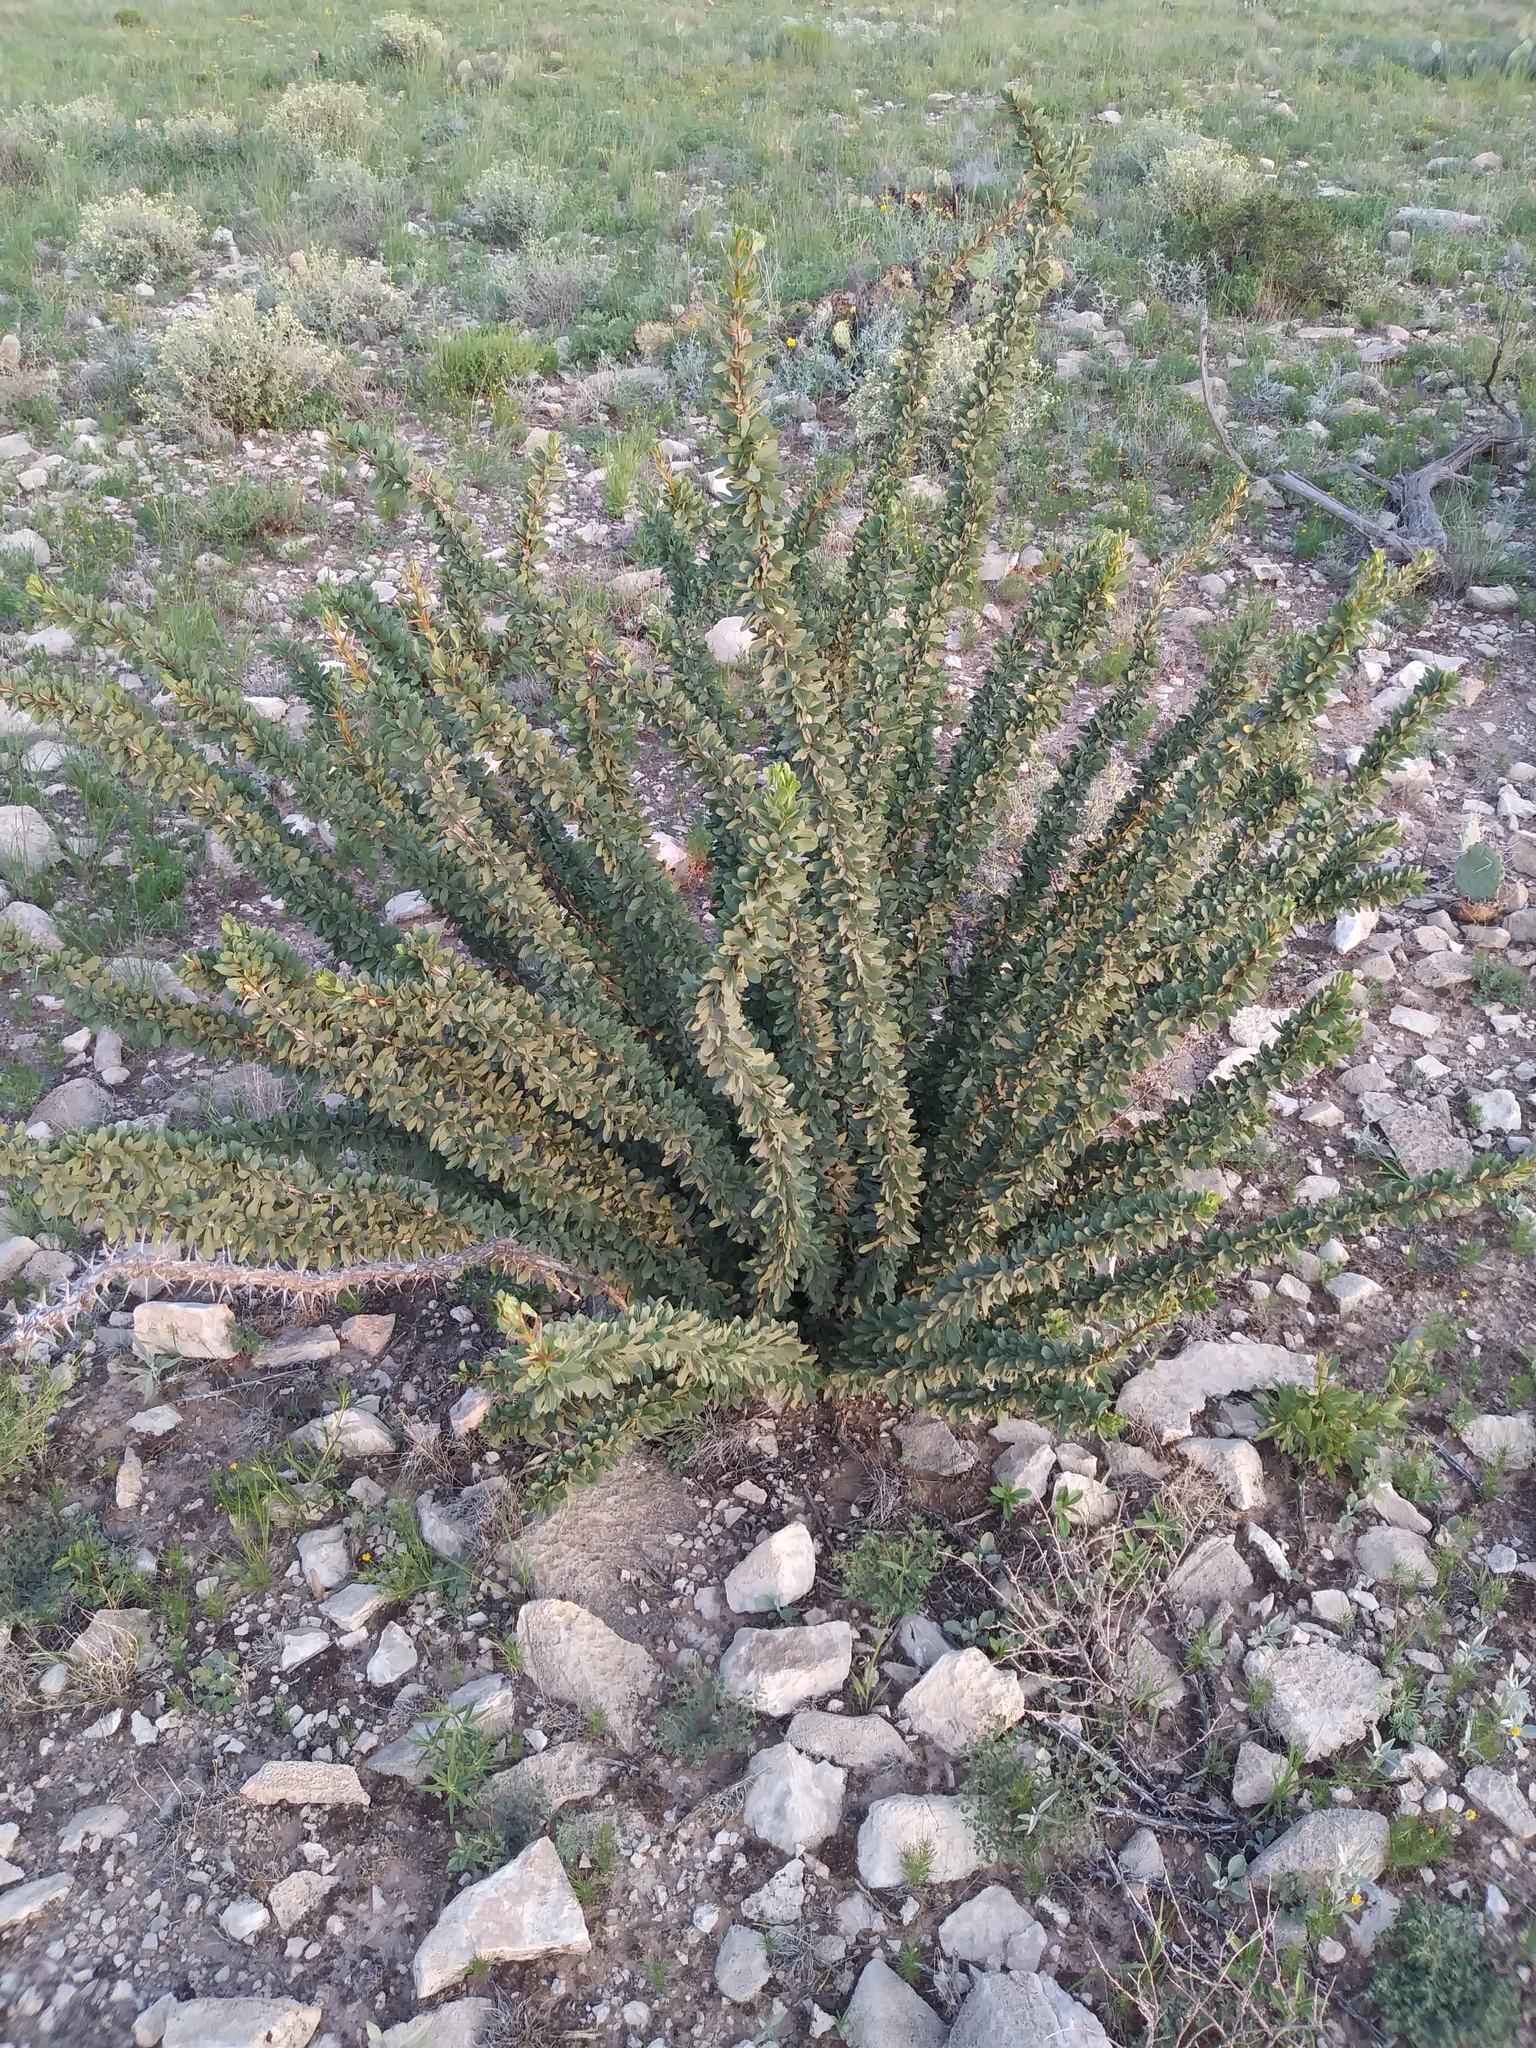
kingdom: Plantae
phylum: Tracheophyta
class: Magnoliopsida
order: Ericales
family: Fouquieriaceae
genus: Fouquieria
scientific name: Fouquieria splendens
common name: Vine-cactus
